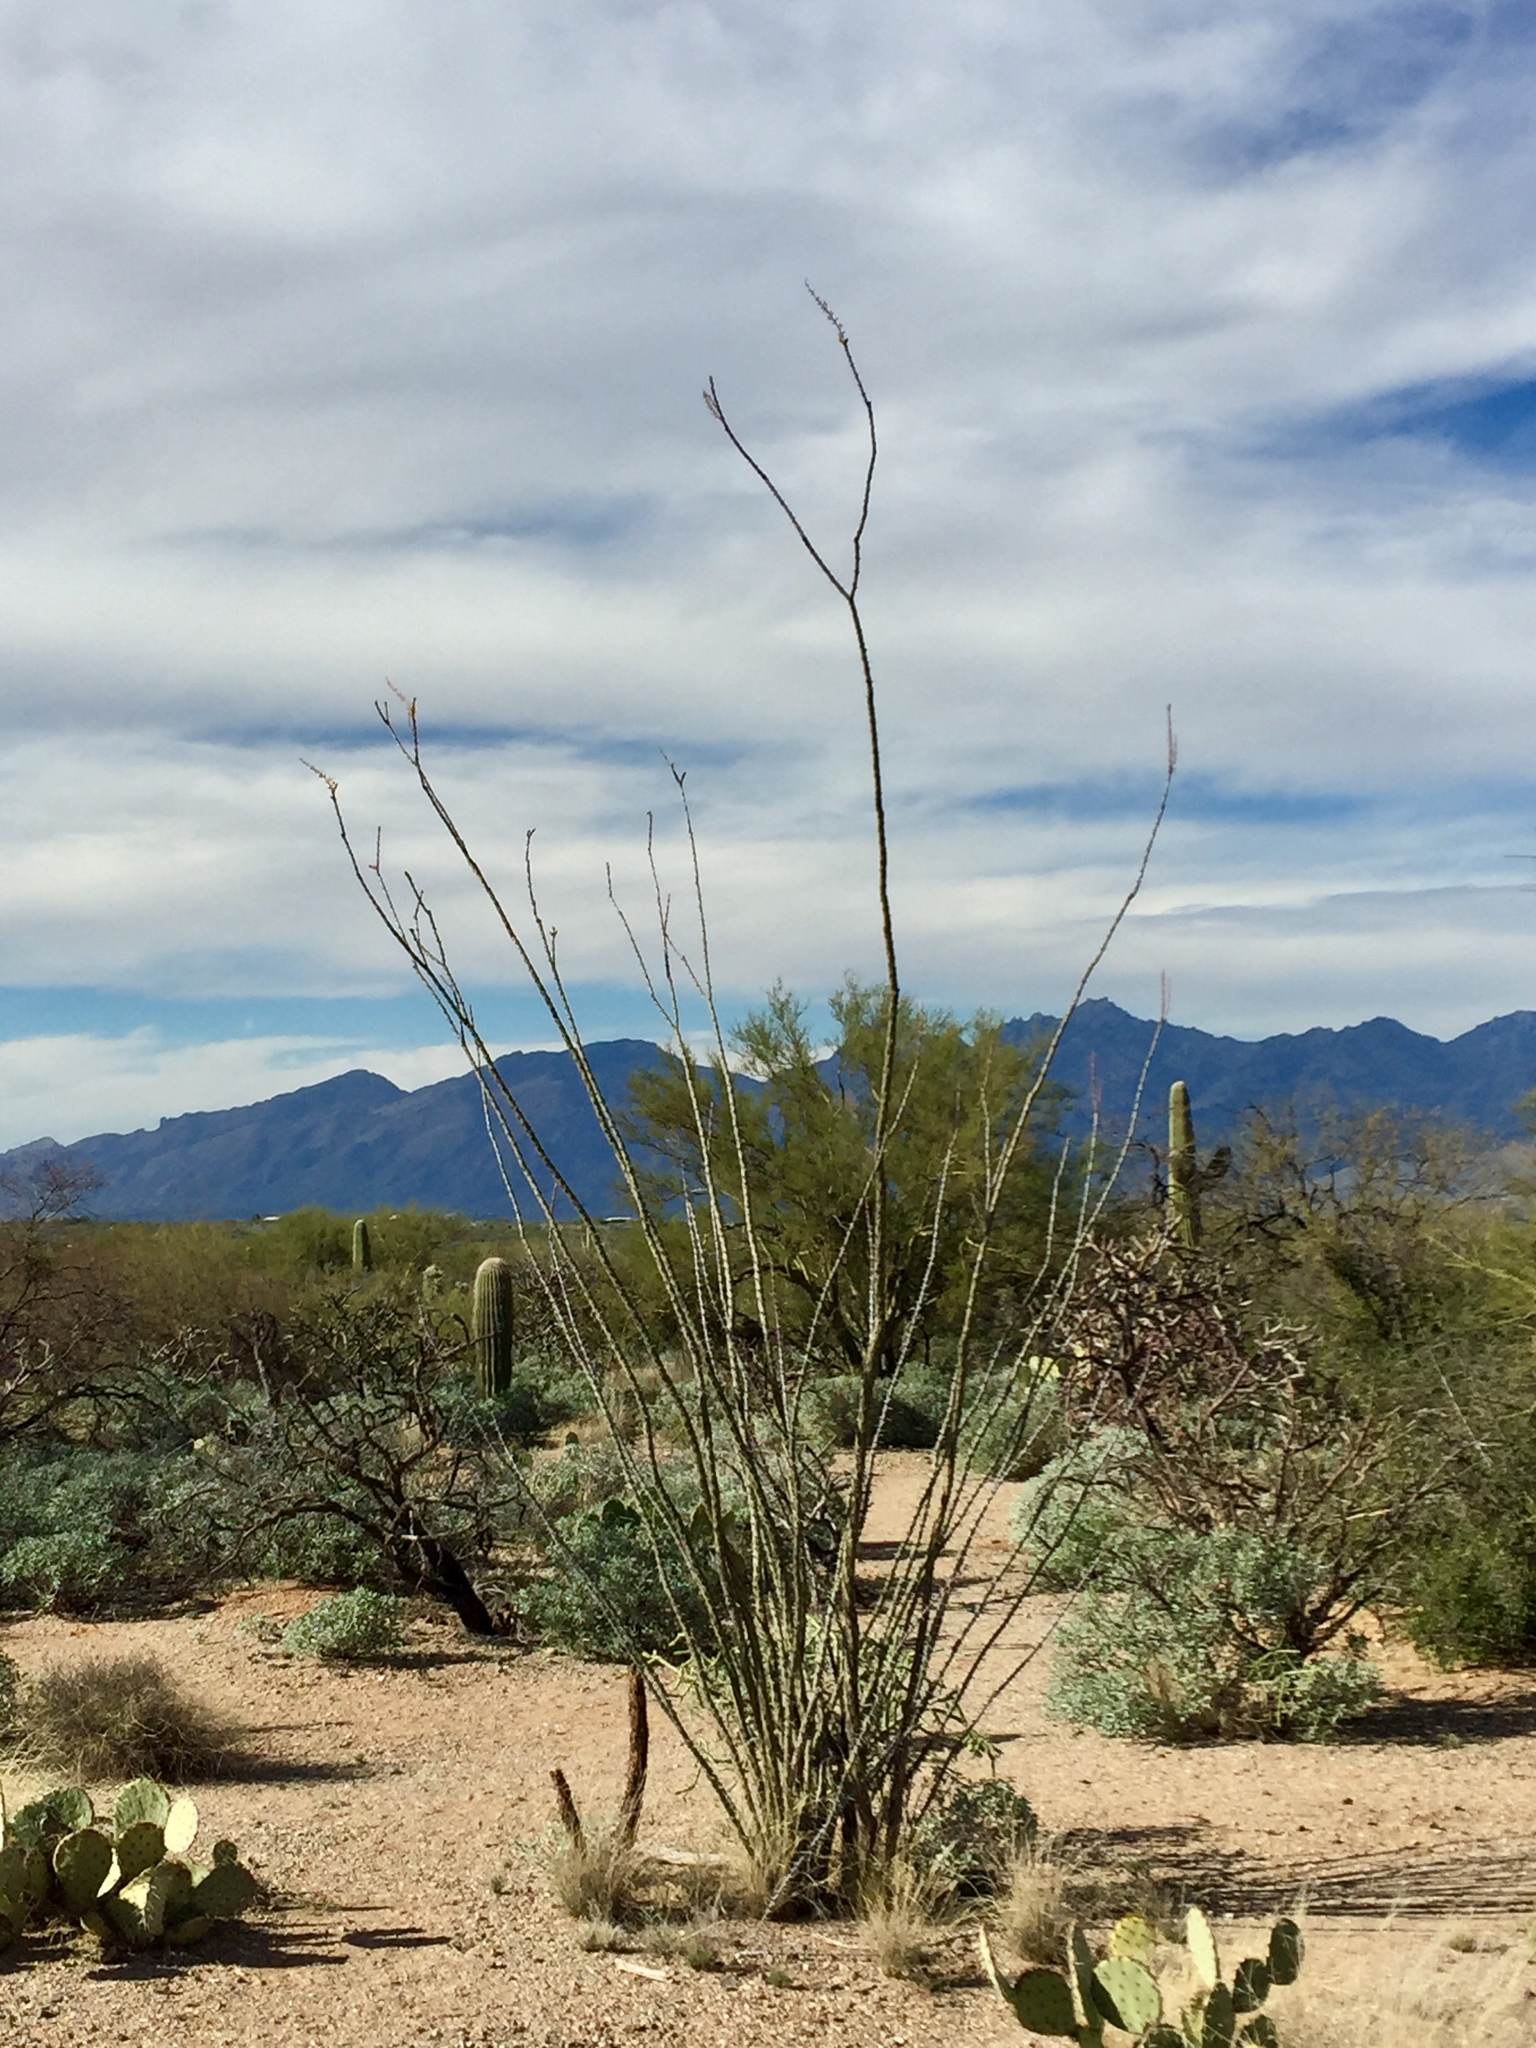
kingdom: Plantae
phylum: Tracheophyta
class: Magnoliopsida
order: Ericales
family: Fouquieriaceae
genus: Fouquieria
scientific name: Fouquieria splendens
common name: Vine-cactus
